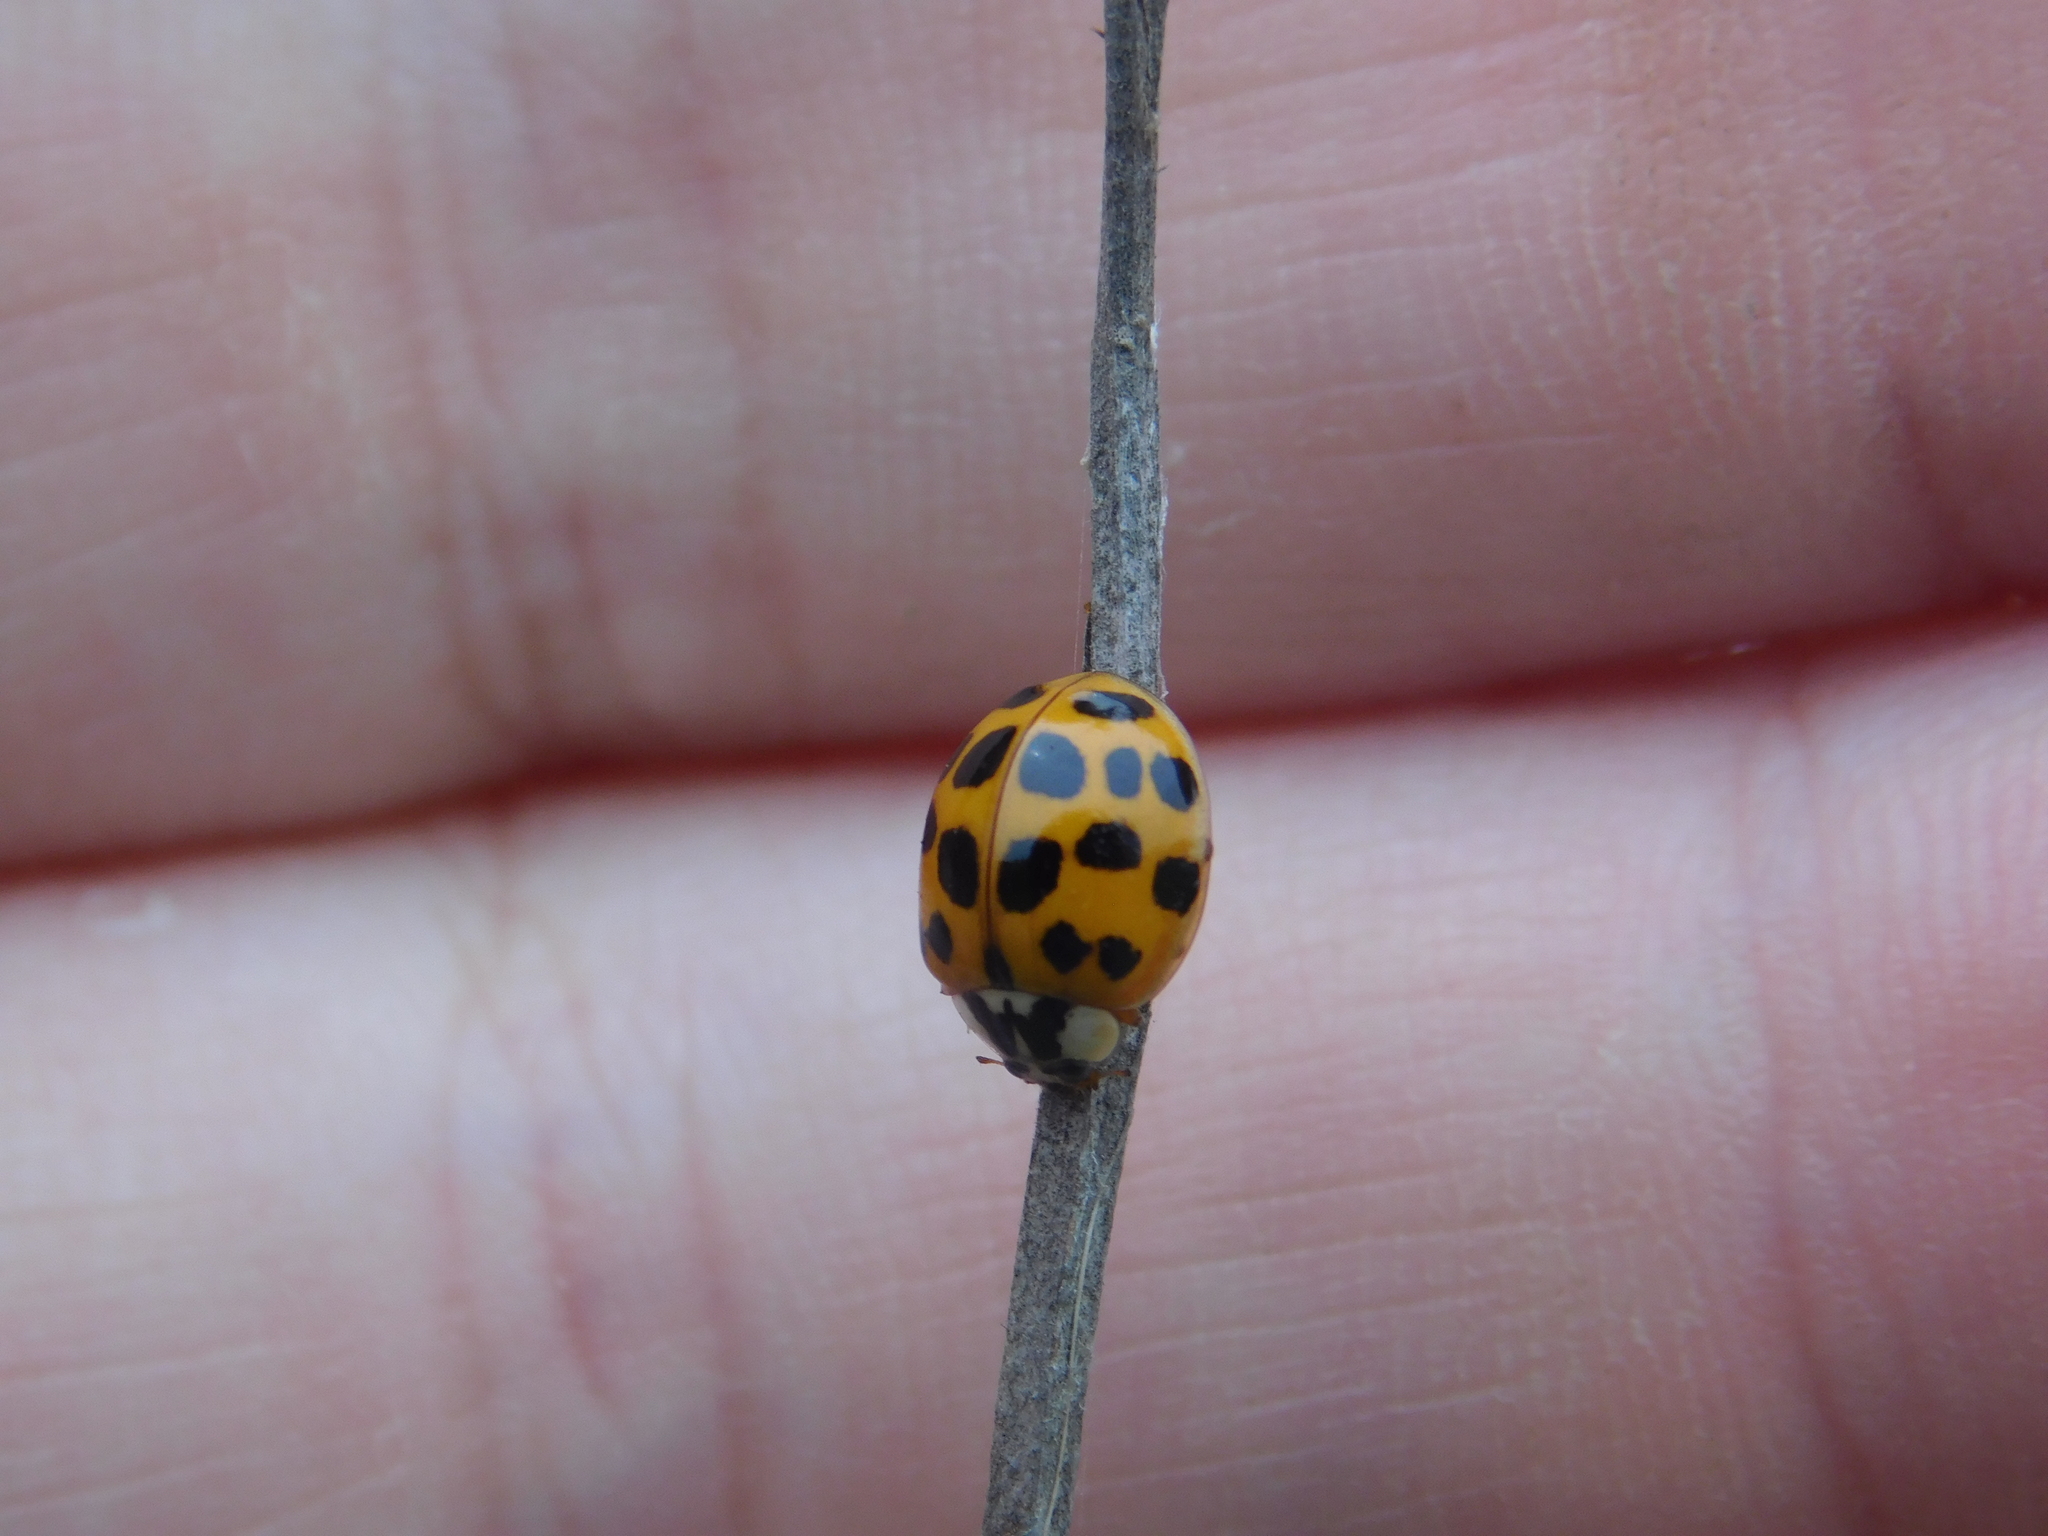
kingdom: Animalia
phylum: Arthropoda
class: Insecta
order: Coleoptera
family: Coccinellidae
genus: Harmonia
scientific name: Harmonia axyridis
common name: Harlequin ladybird
